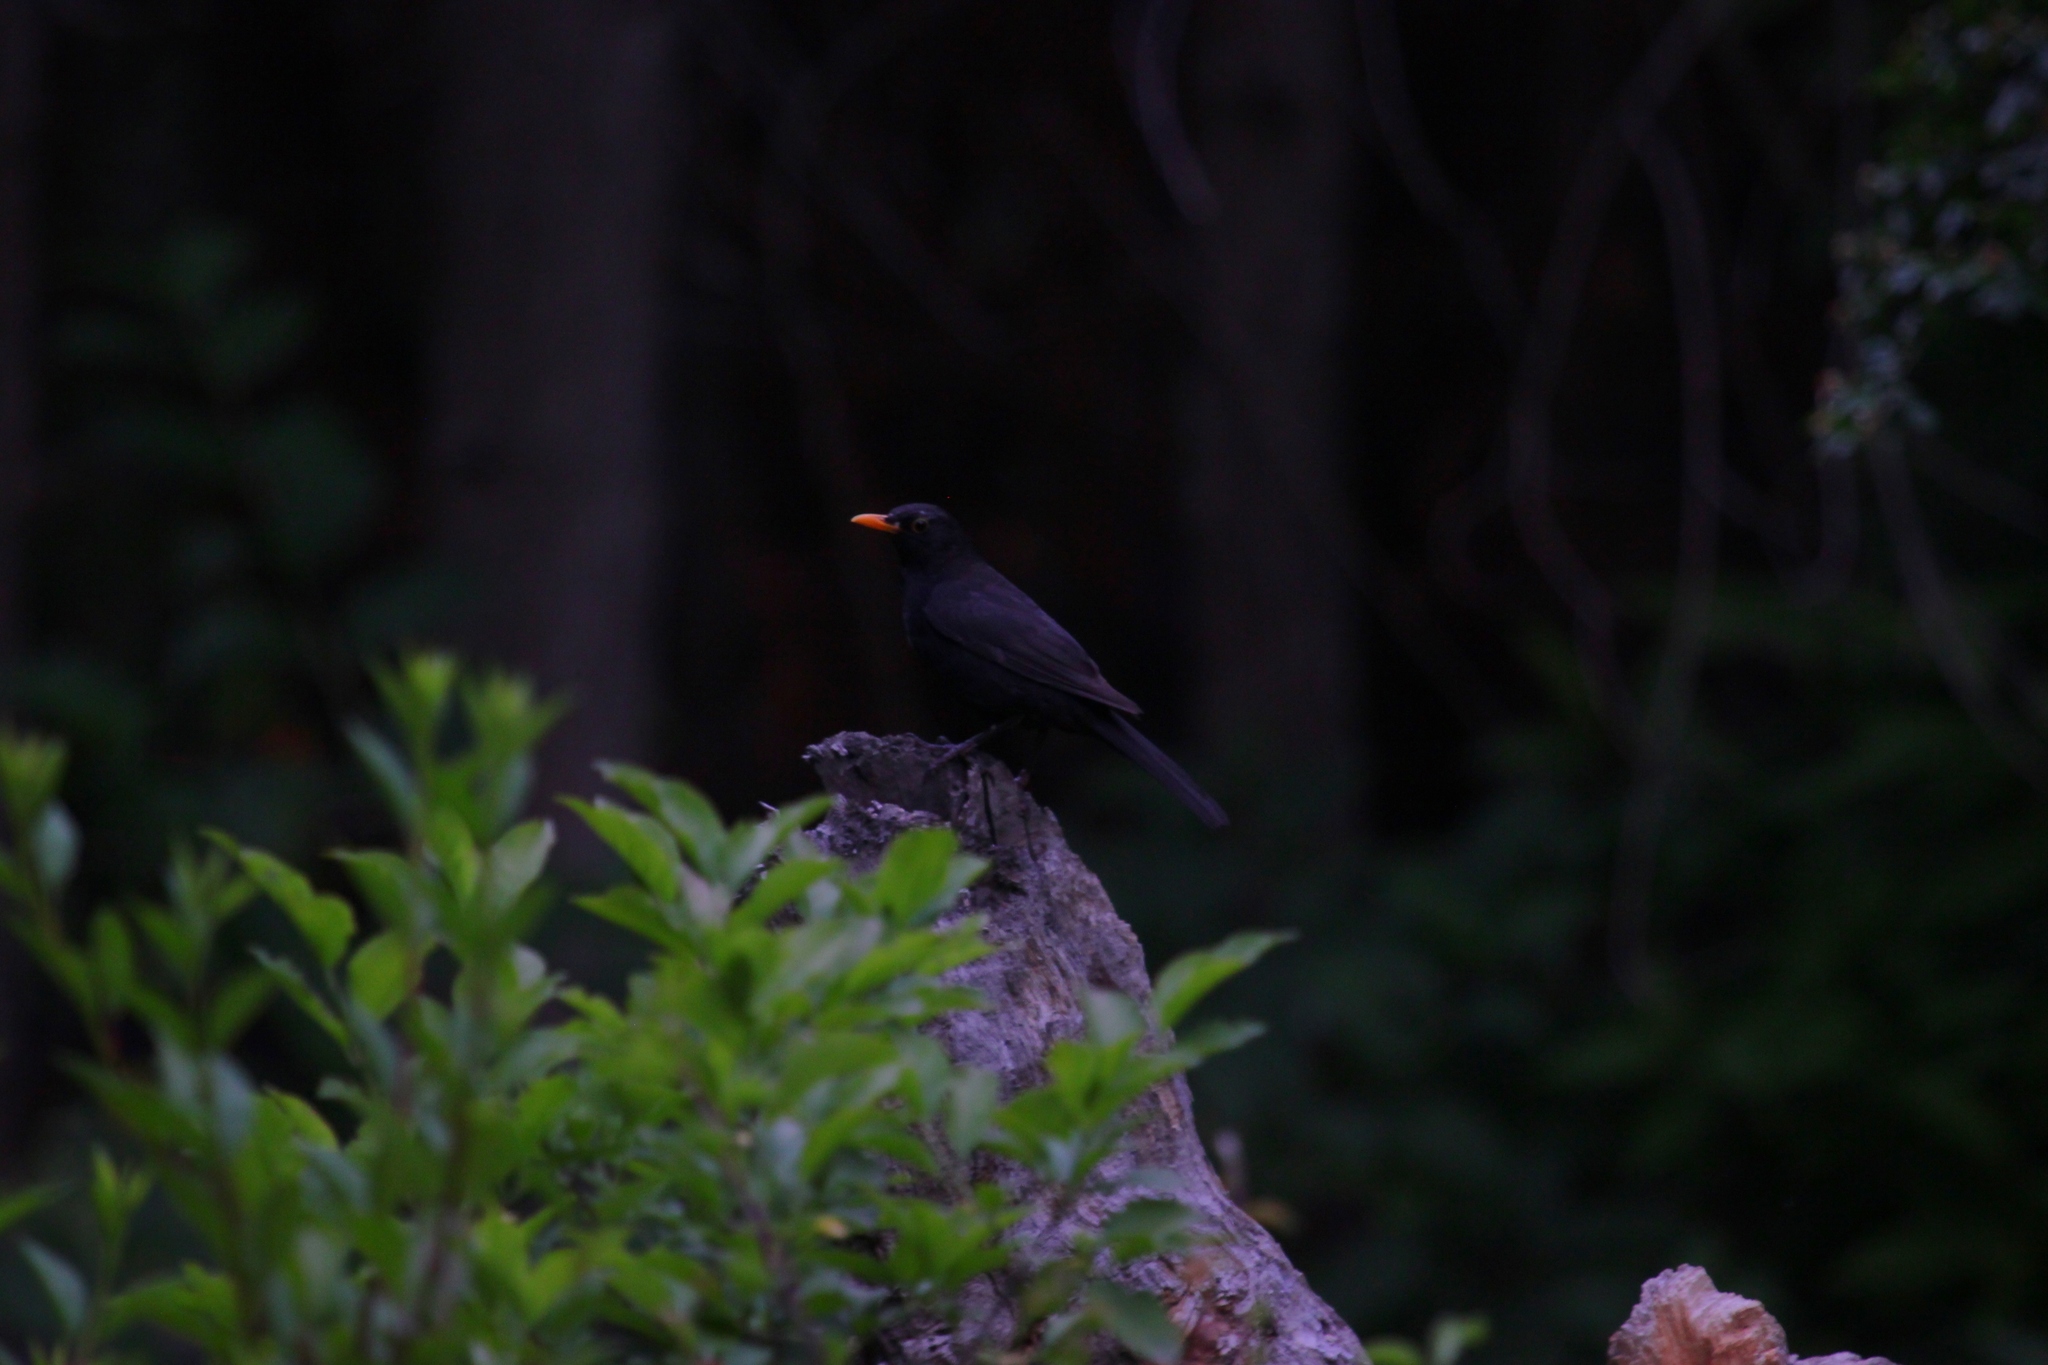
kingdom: Animalia
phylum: Chordata
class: Aves
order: Passeriformes
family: Turdidae
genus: Turdus
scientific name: Turdus merula
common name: Common blackbird
